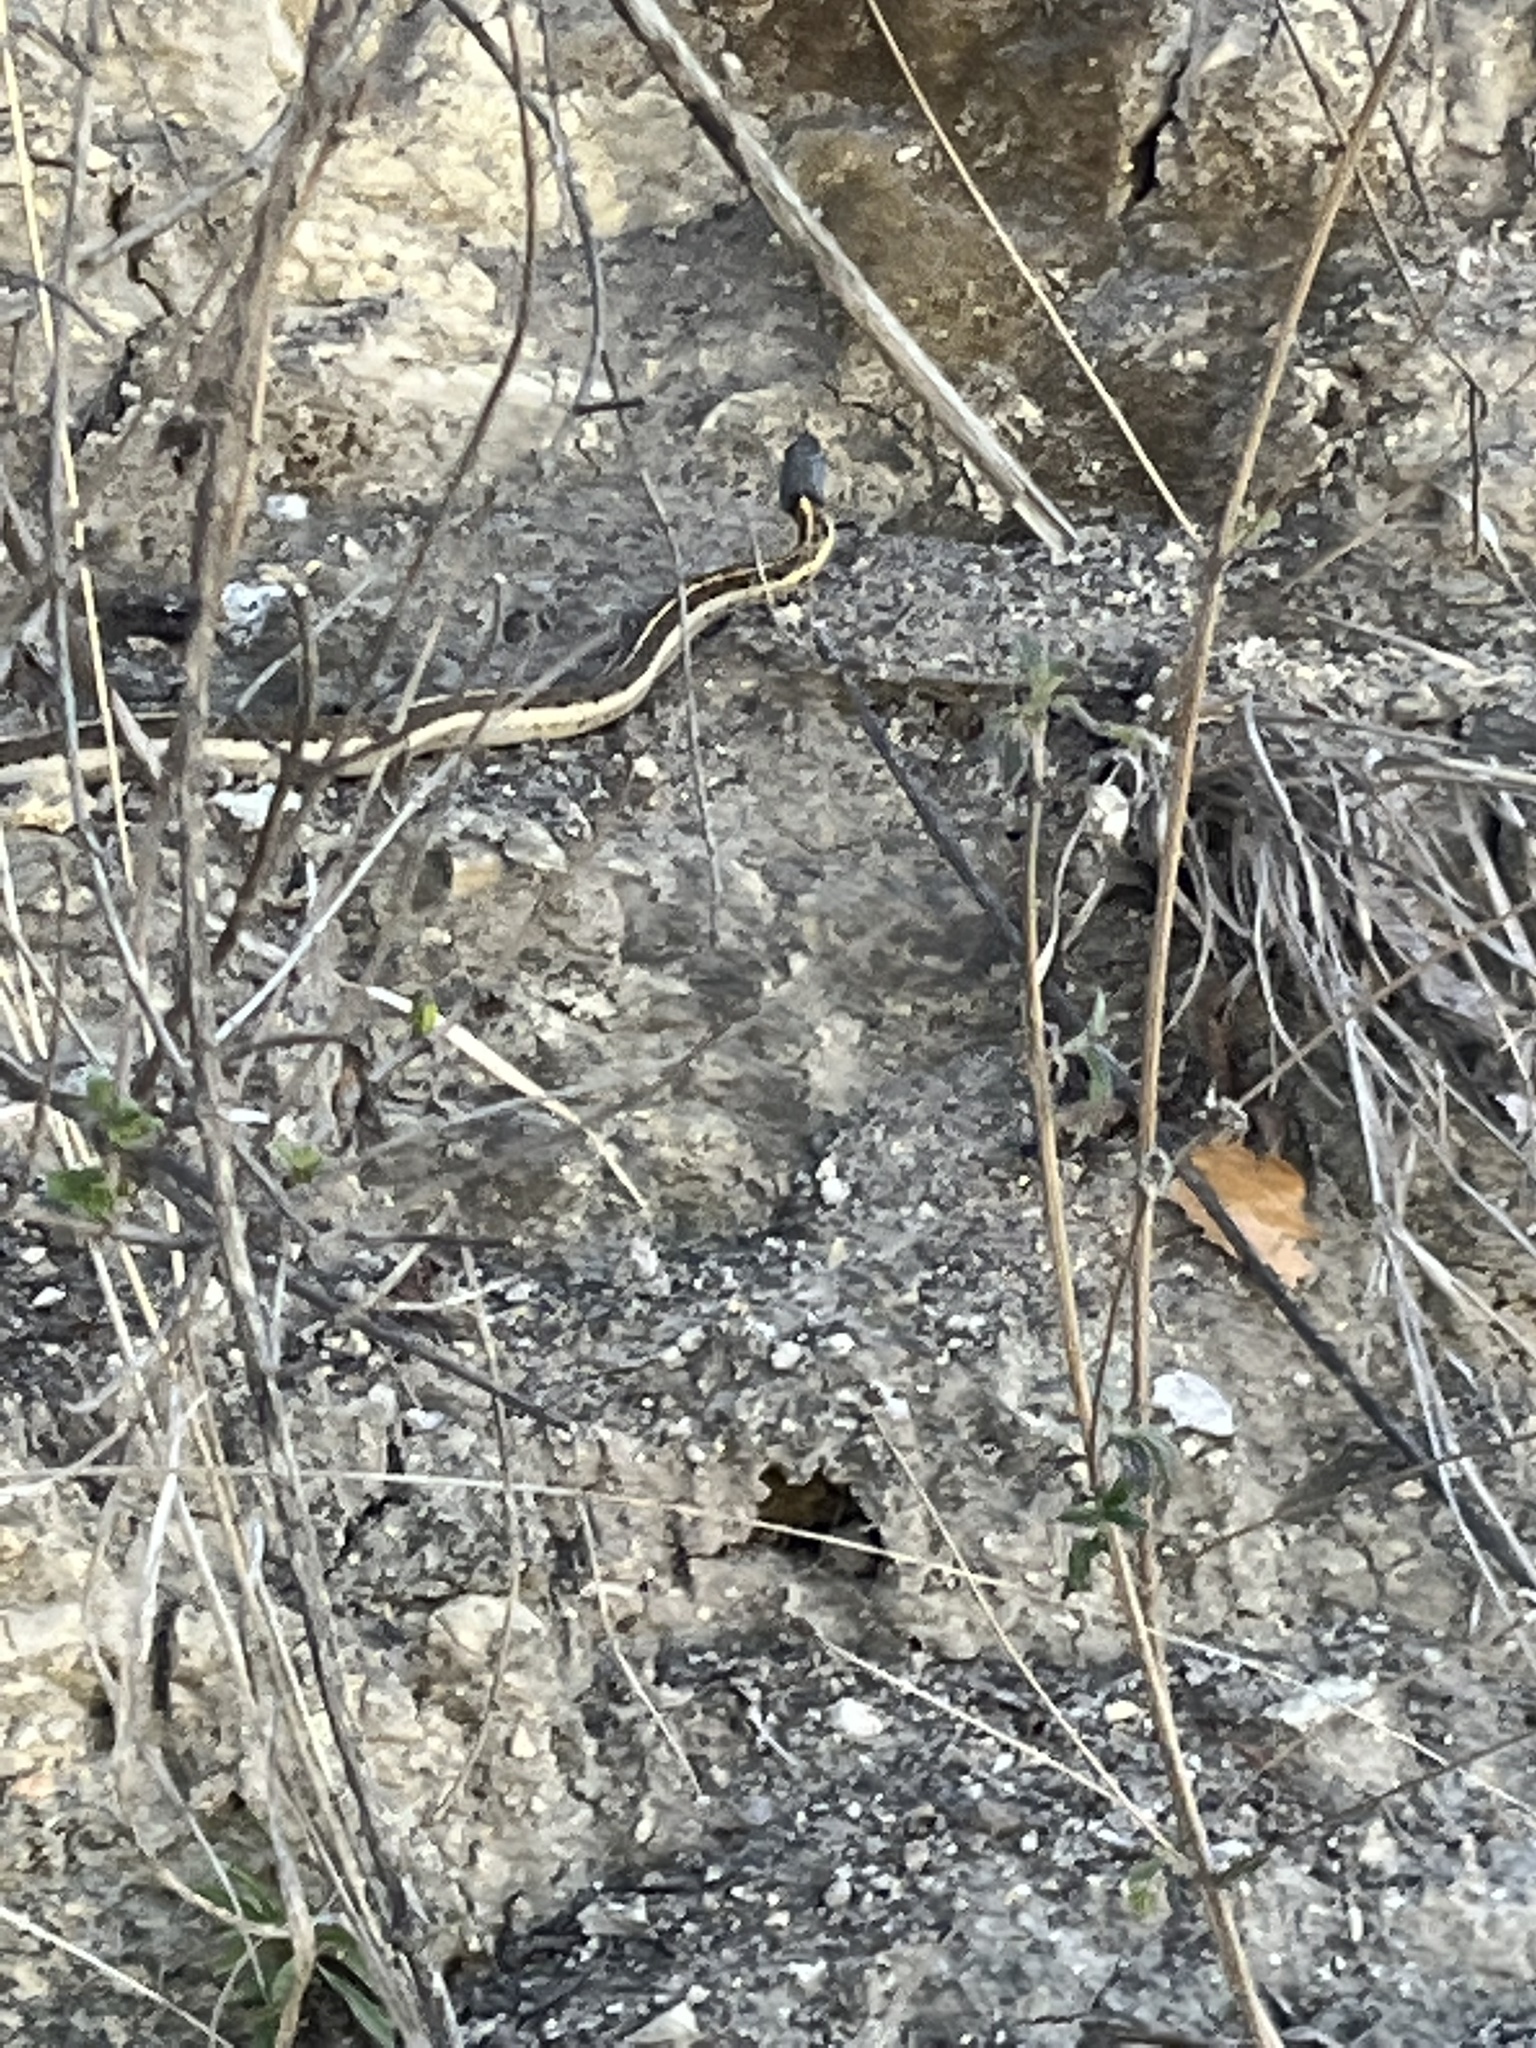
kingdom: Animalia
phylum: Chordata
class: Squamata
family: Colubridae
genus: Thamnophis
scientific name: Thamnophis cyrtopsis
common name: Black-necked gartersnake
